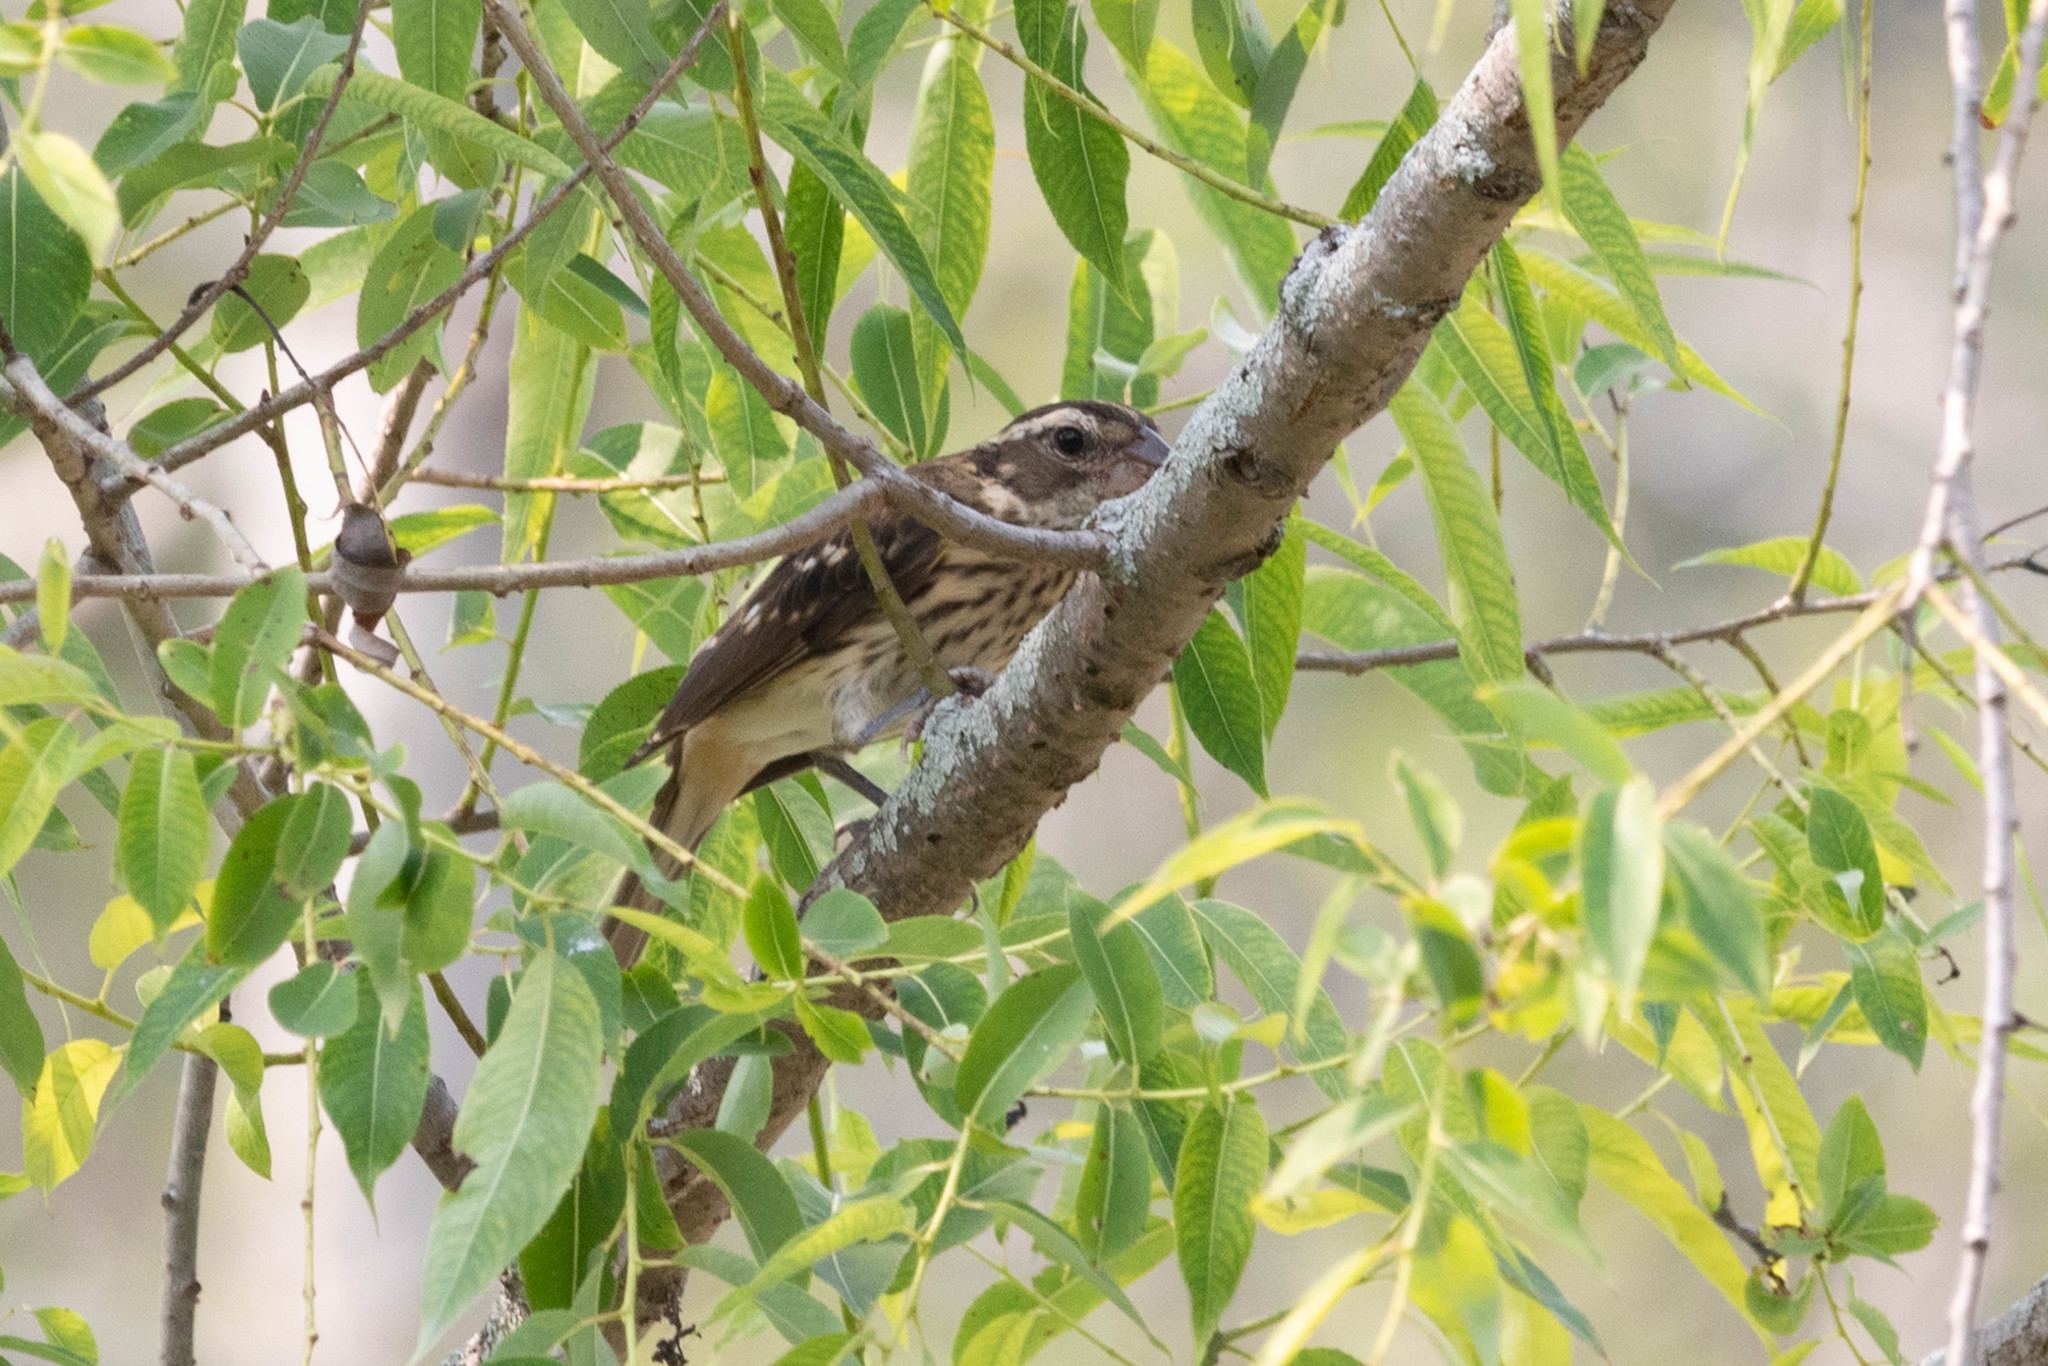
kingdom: Animalia
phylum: Chordata
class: Aves
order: Passeriformes
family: Cardinalidae
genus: Pheucticus
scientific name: Pheucticus ludovicianus
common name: Rose-breasted grosbeak
